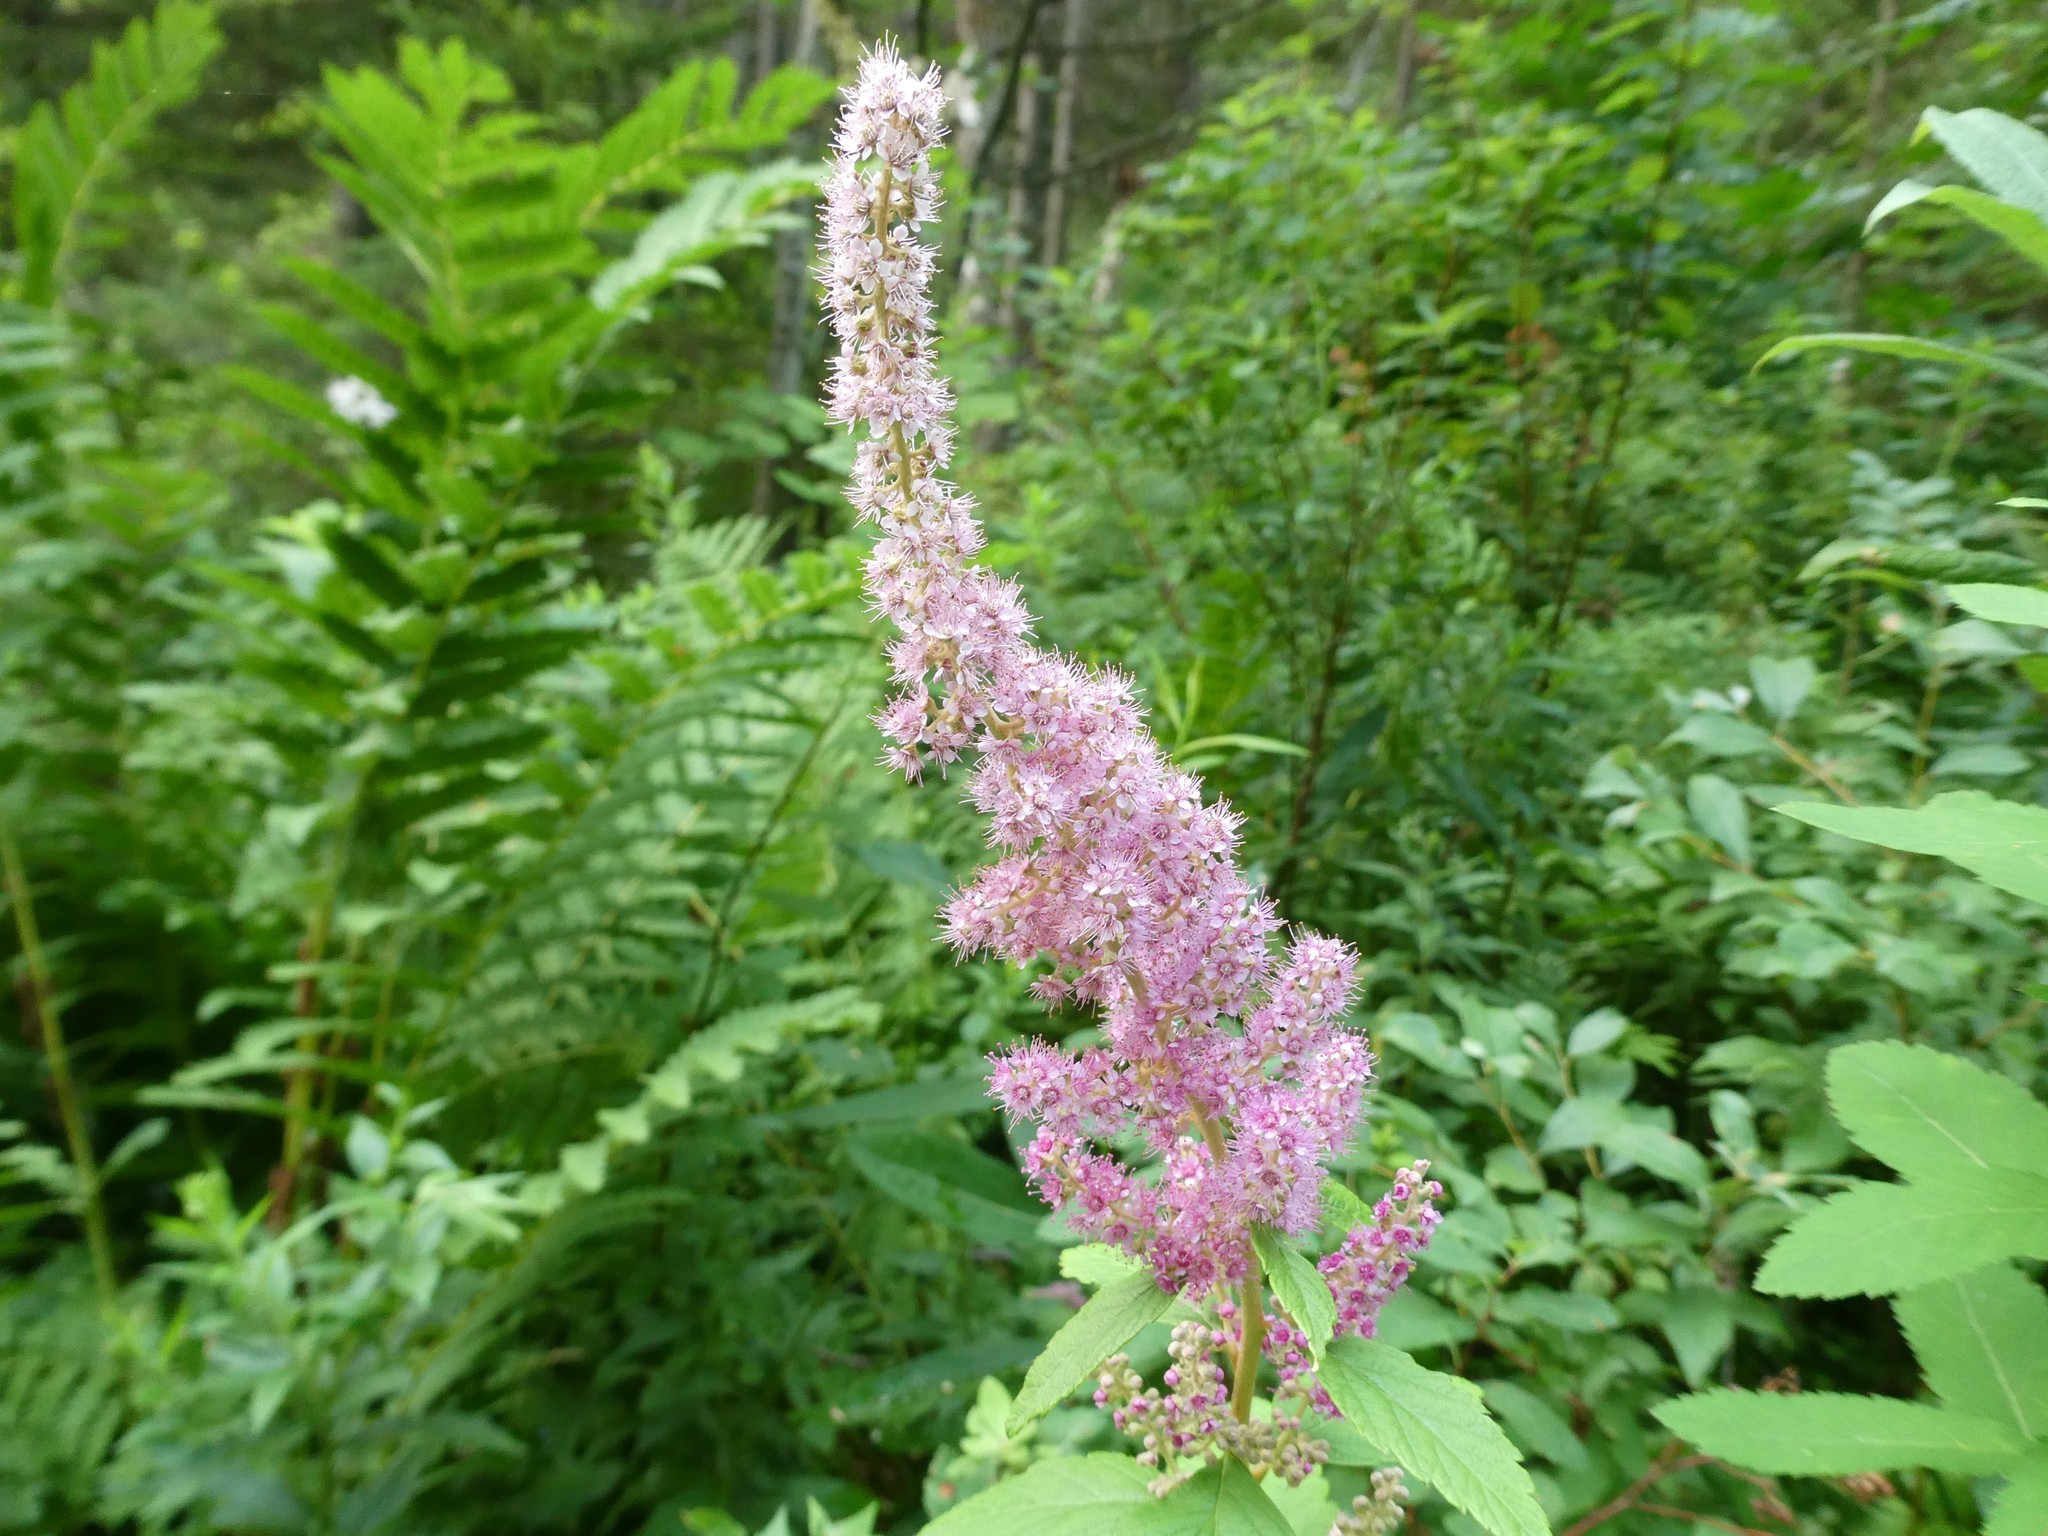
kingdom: Plantae
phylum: Tracheophyta
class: Magnoliopsida
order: Rosales
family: Rosaceae
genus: Spiraea
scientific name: Spiraea tomentosa
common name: Hardhack
